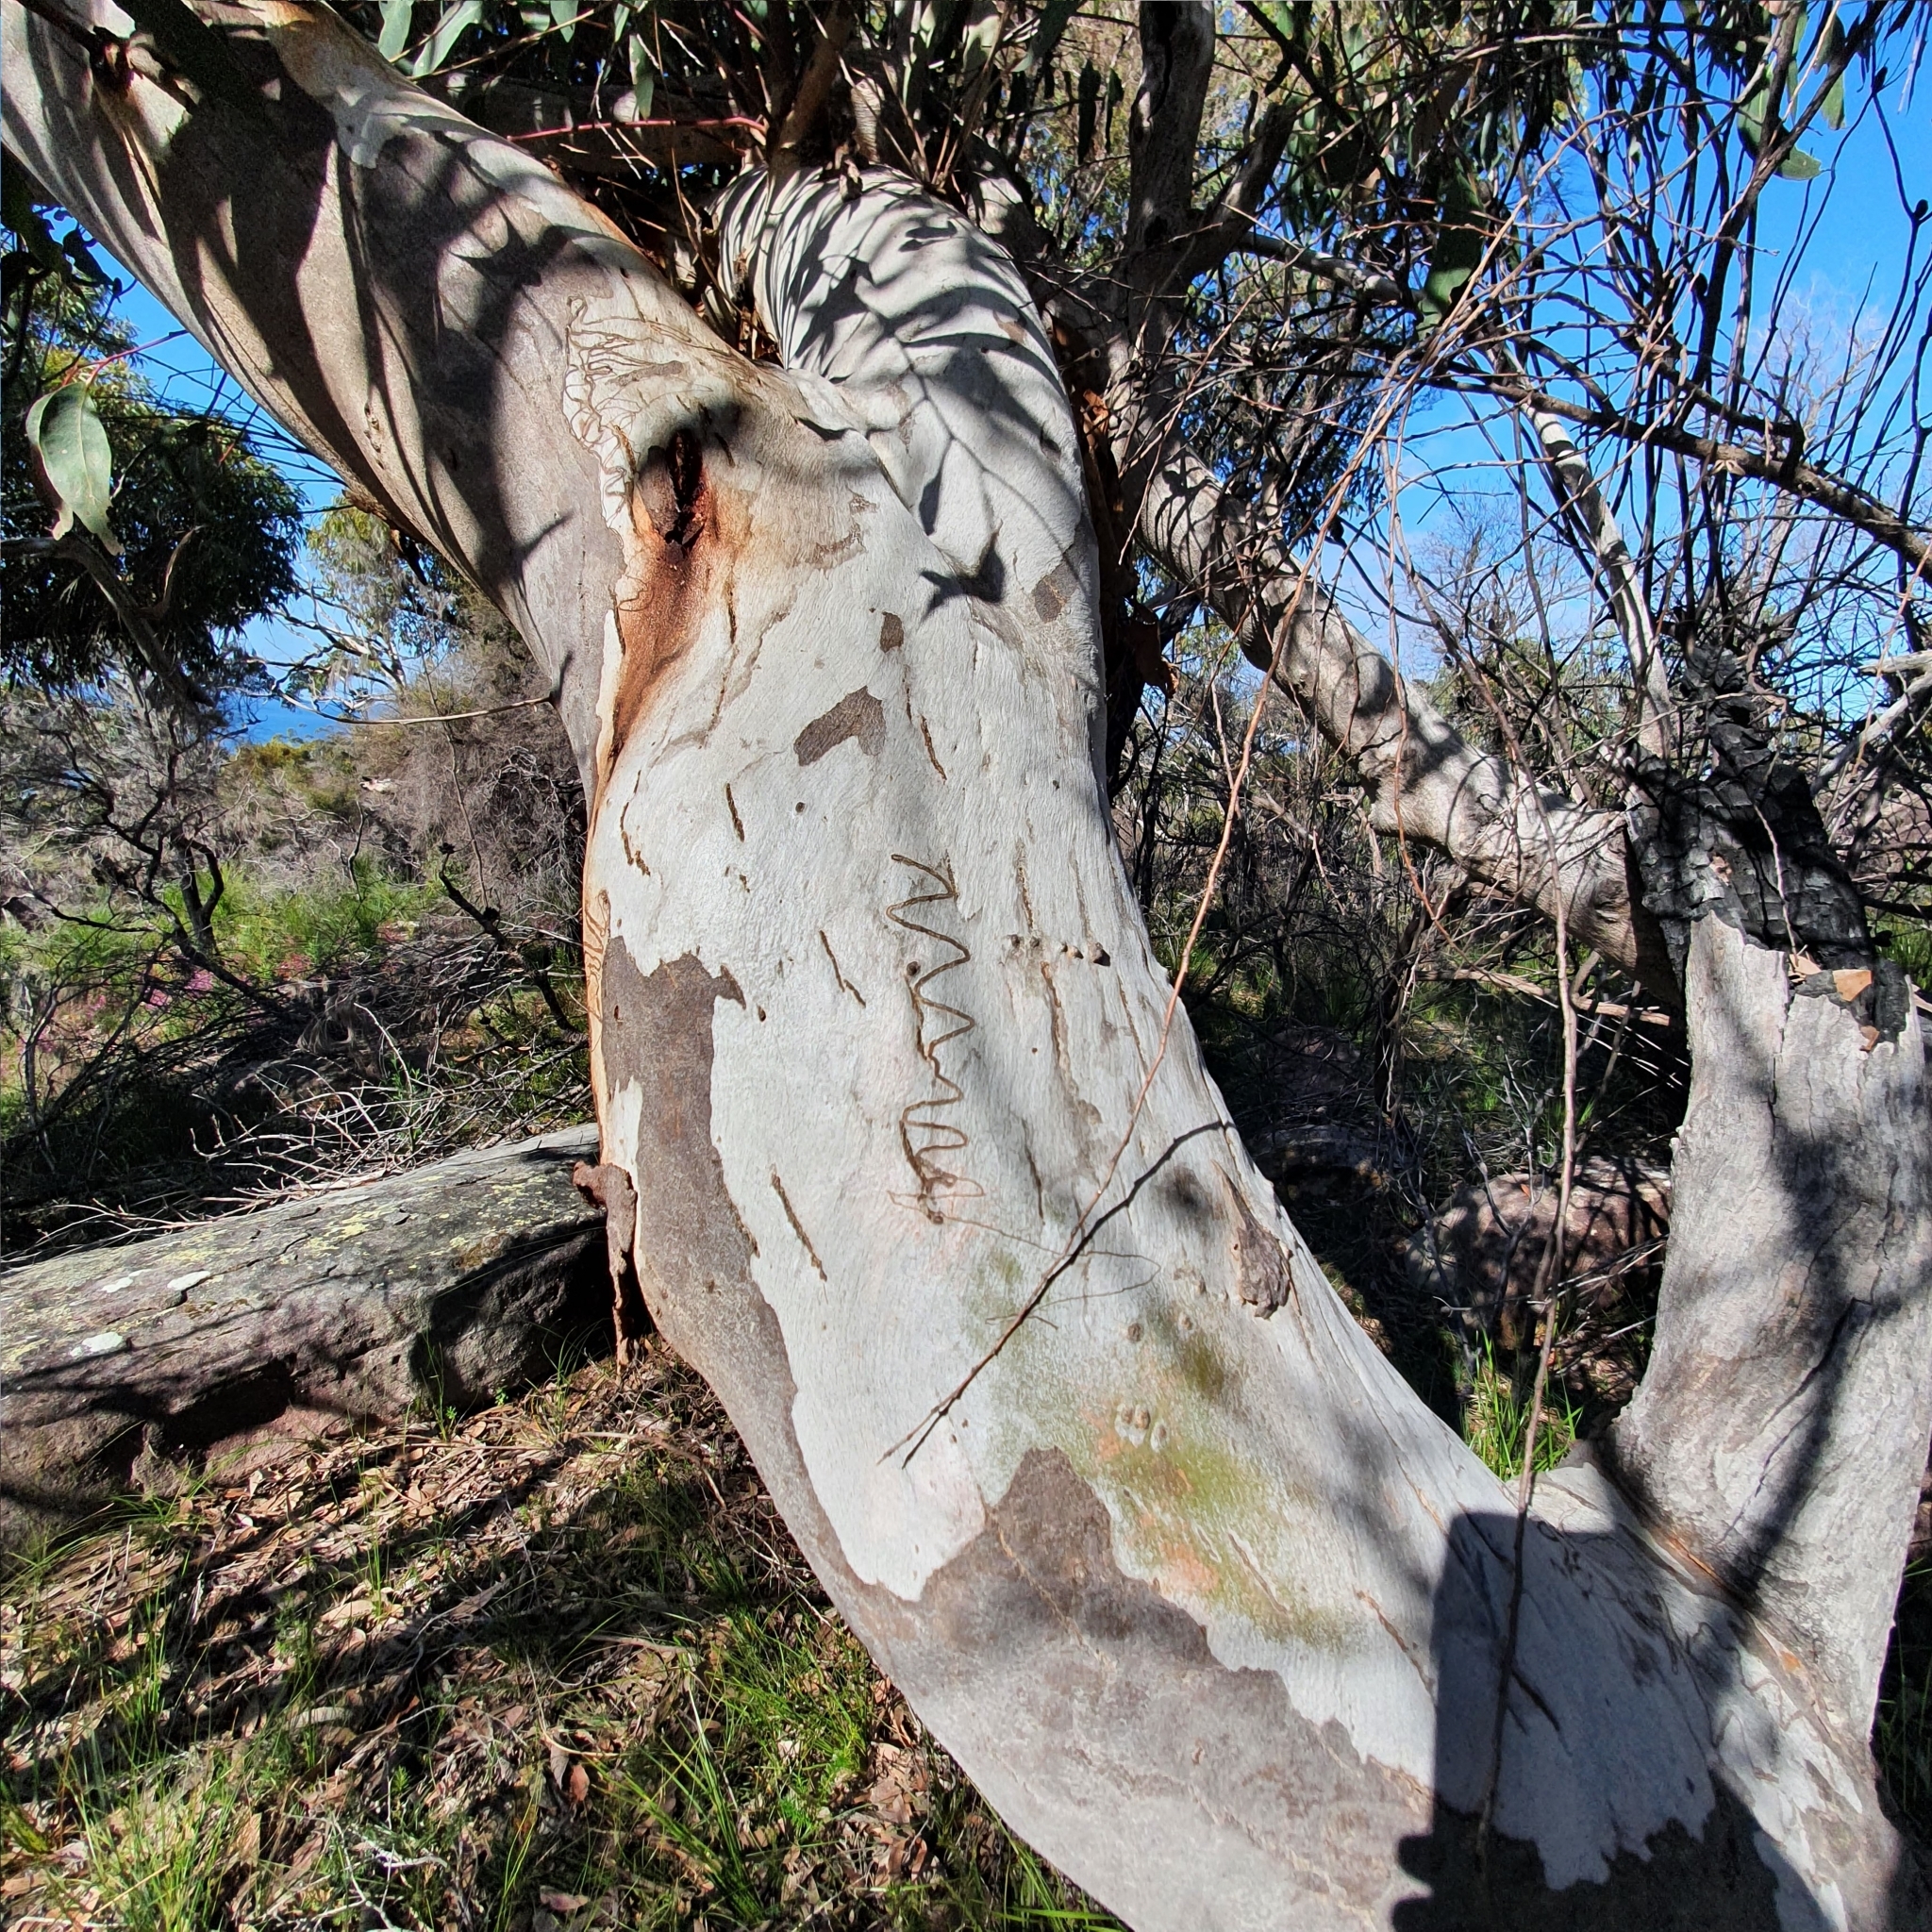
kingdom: Plantae
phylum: Tracheophyta
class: Magnoliopsida
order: Myrtales
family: Myrtaceae
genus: Eucalyptus
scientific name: Eucalyptus haemastoma
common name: Scribbly-gum
